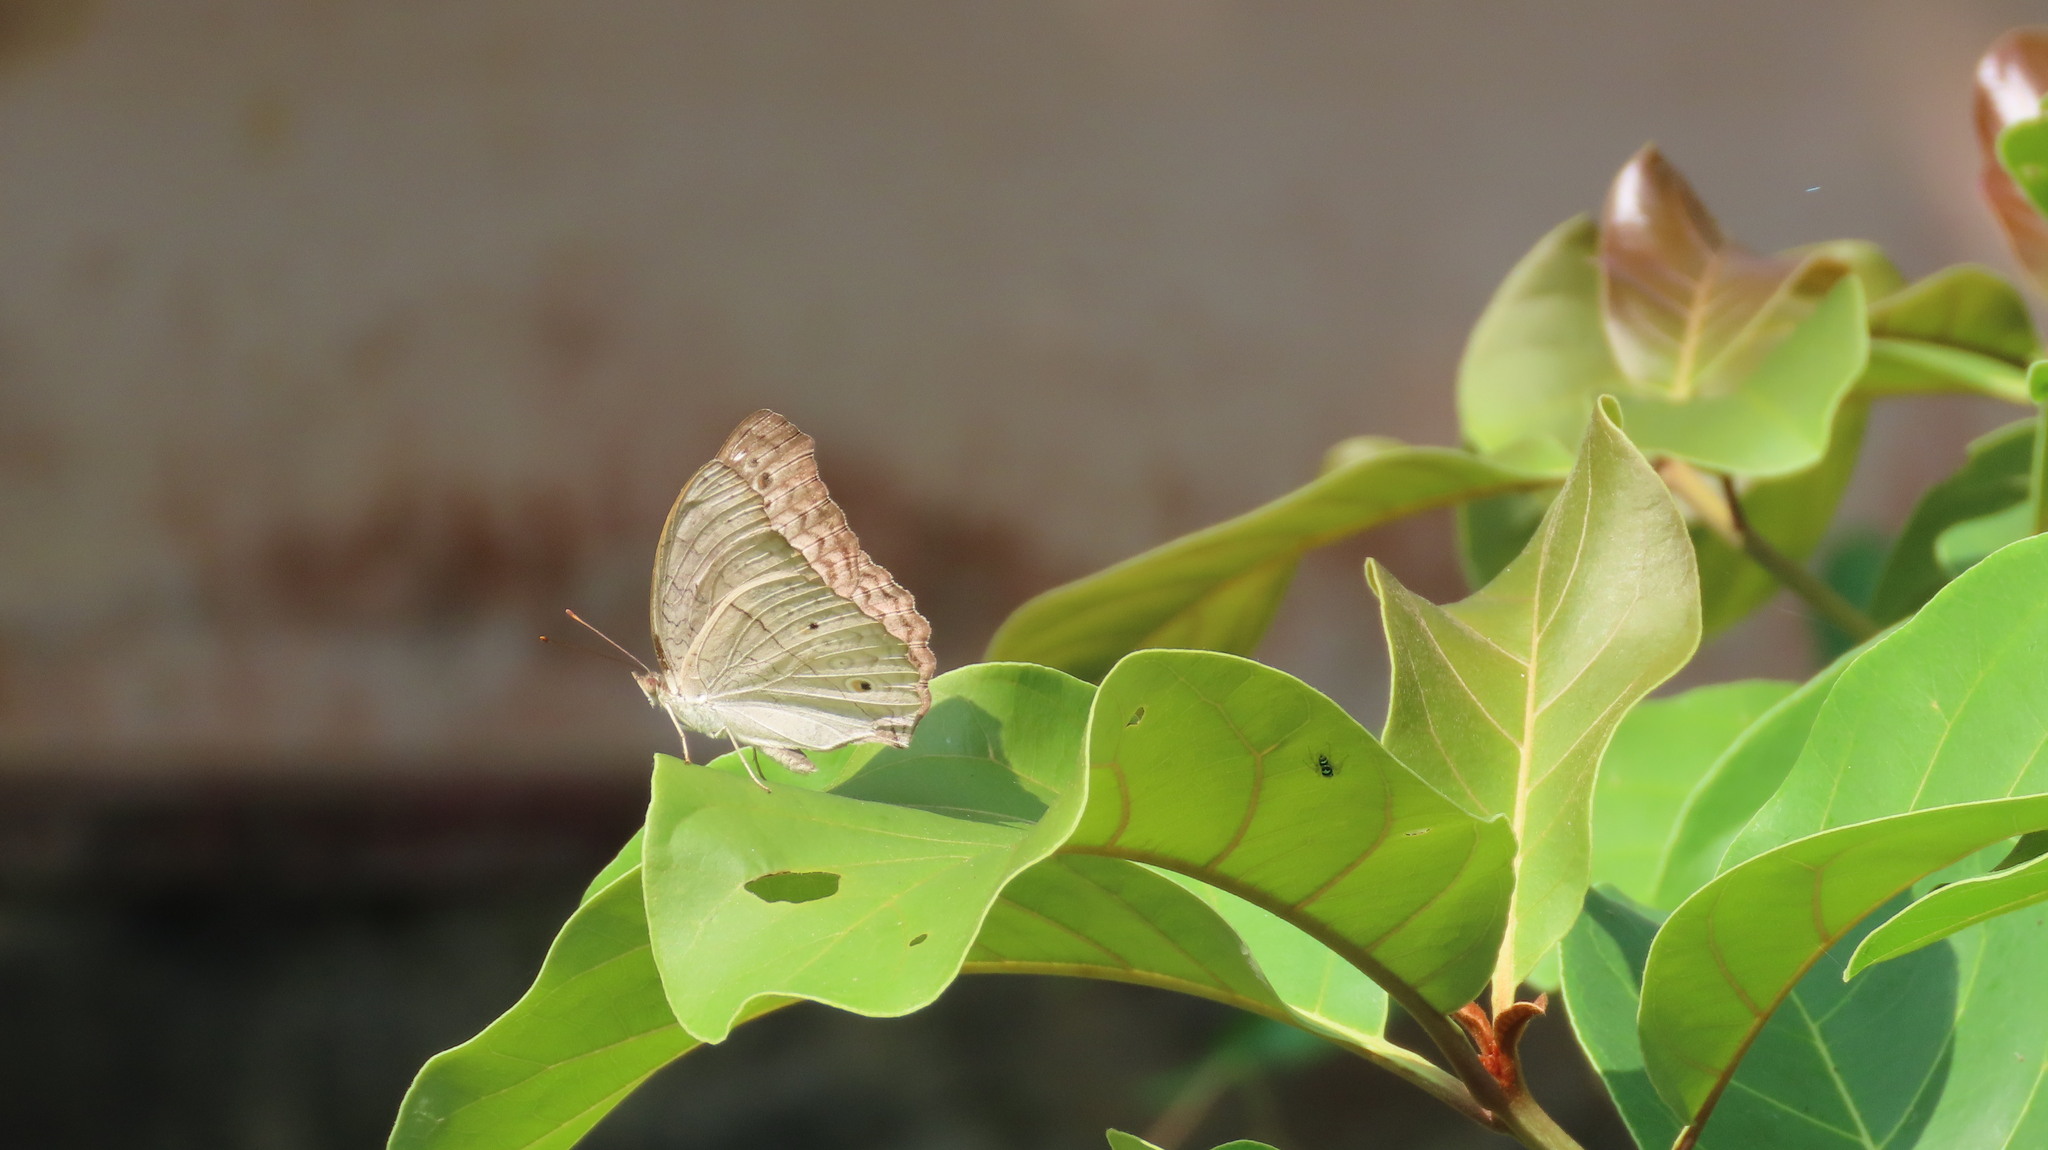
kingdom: Animalia
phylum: Arthropoda
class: Insecta
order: Lepidoptera
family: Nymphalidae
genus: Junonia
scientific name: Junonia atlites
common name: Grey pansy
